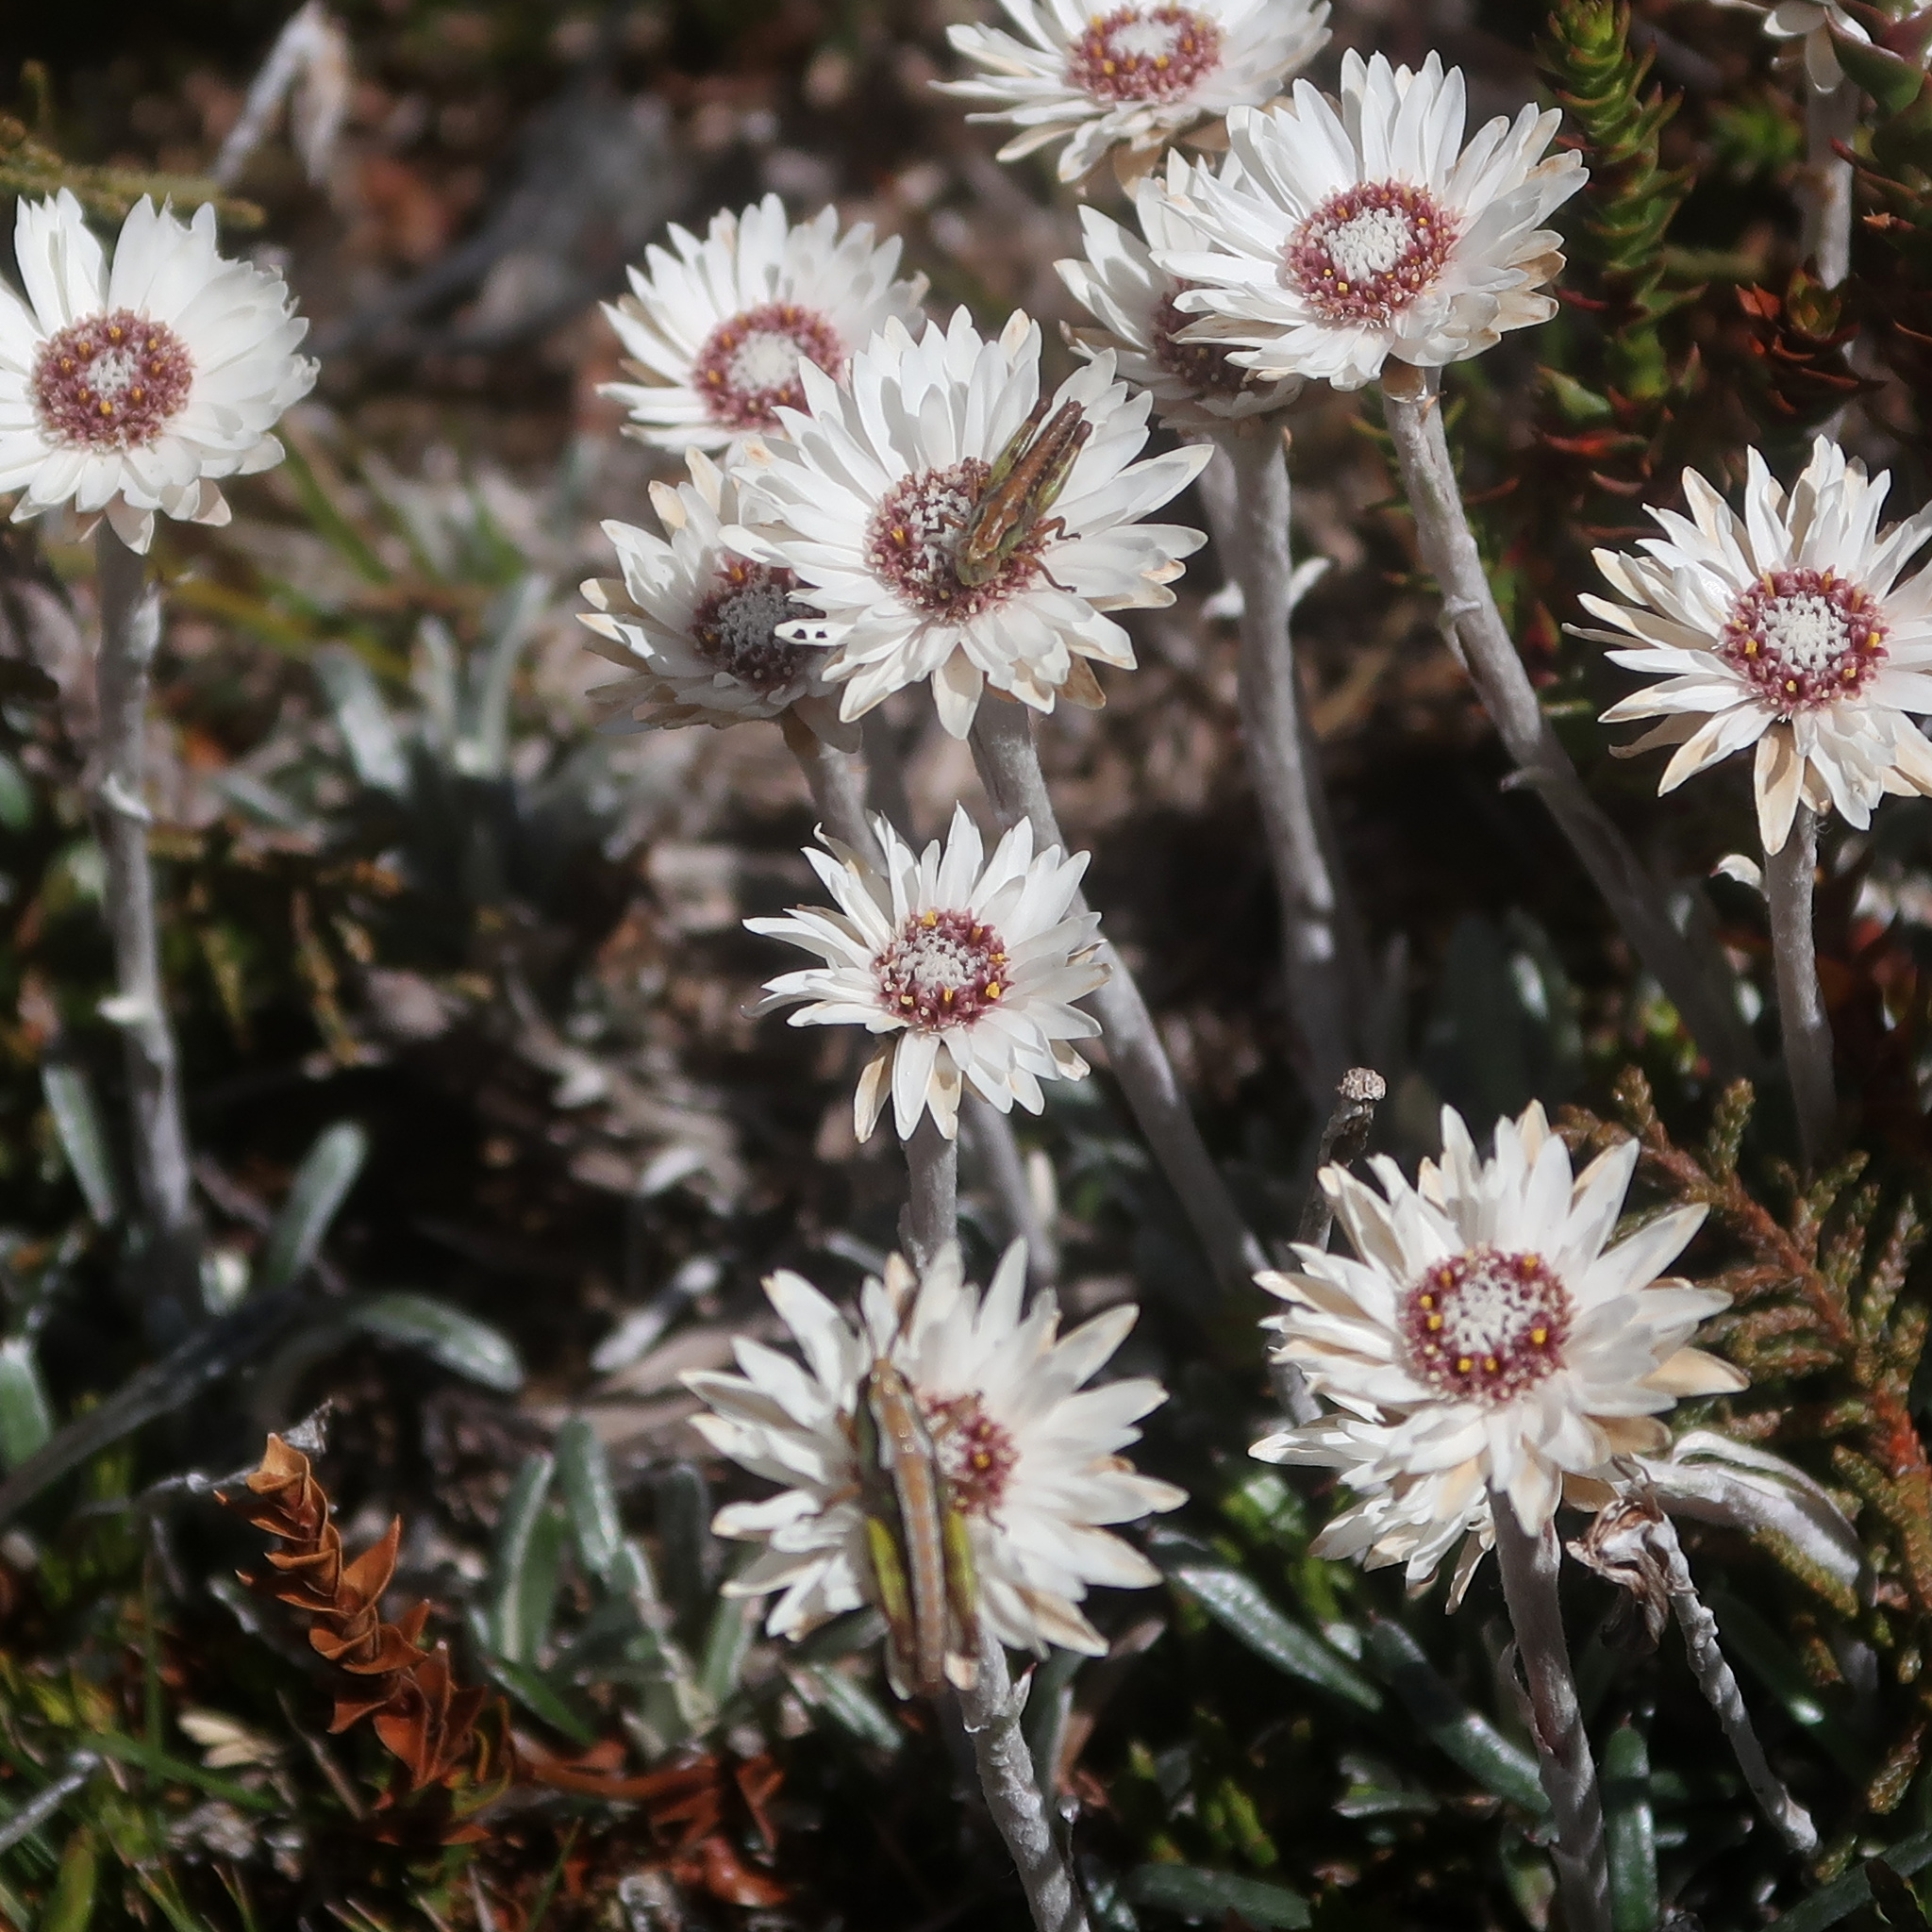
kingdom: Animalia
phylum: Arthropoda
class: Insecta
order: Orthoptera
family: Acrididae
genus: Russalpia
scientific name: Russalpia longifurca
